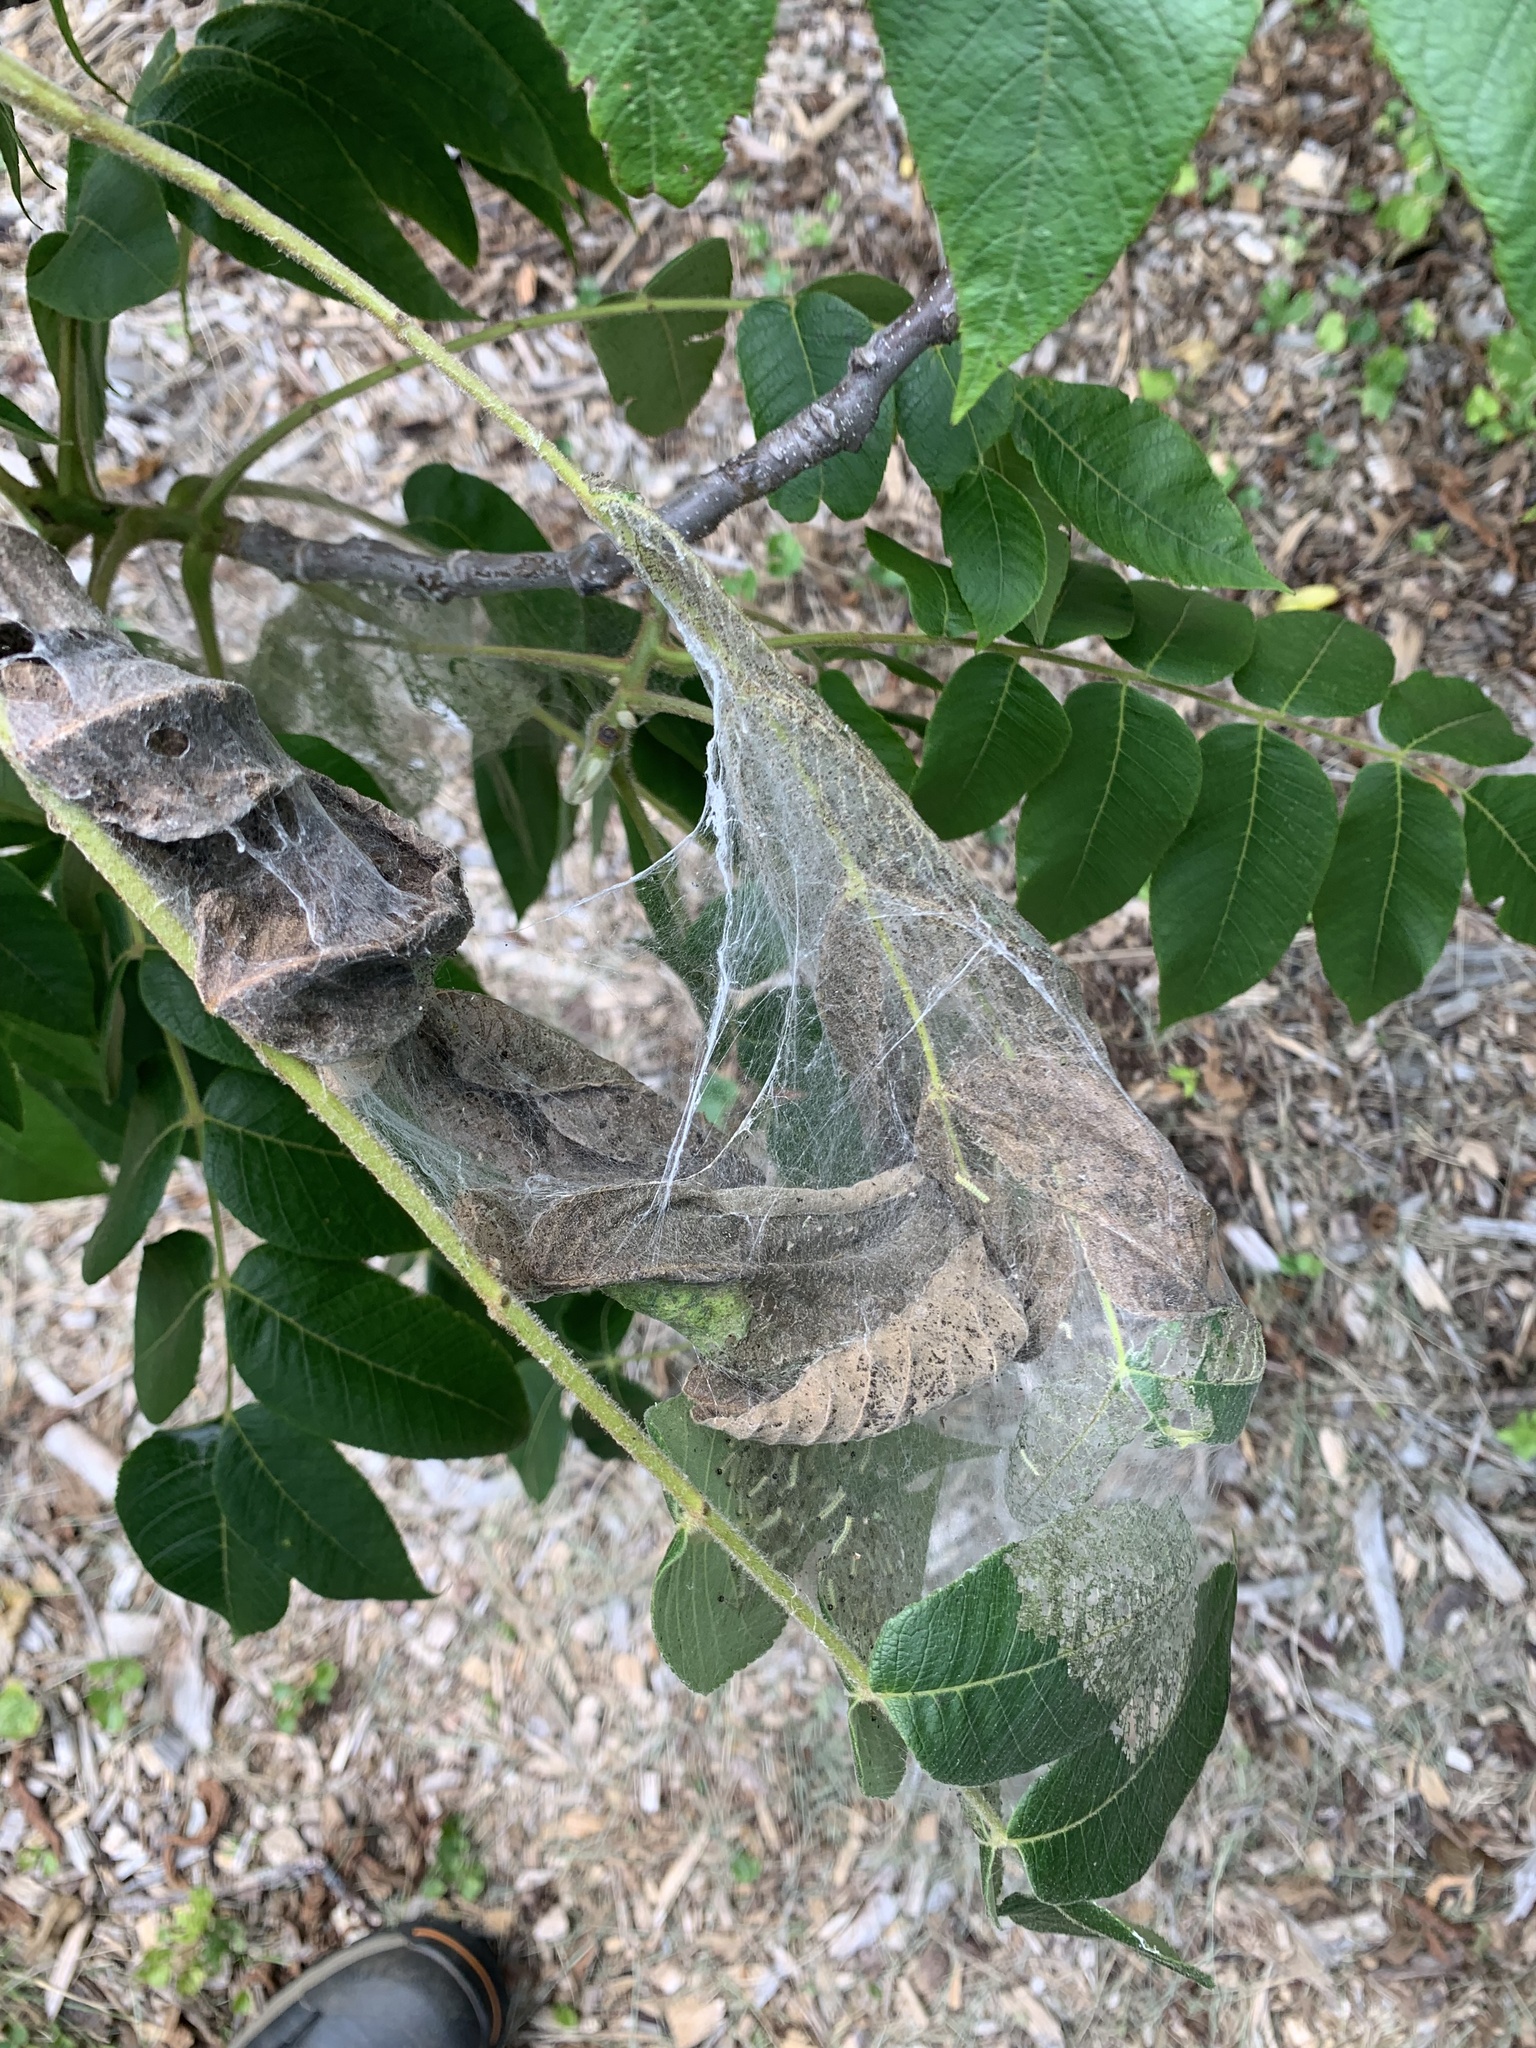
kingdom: Animalia
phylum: Arthropoda
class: Insecta
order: Lepidoptera
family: Erebidae
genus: Hyphantria
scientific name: Hyphantria cunea
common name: American white moth
